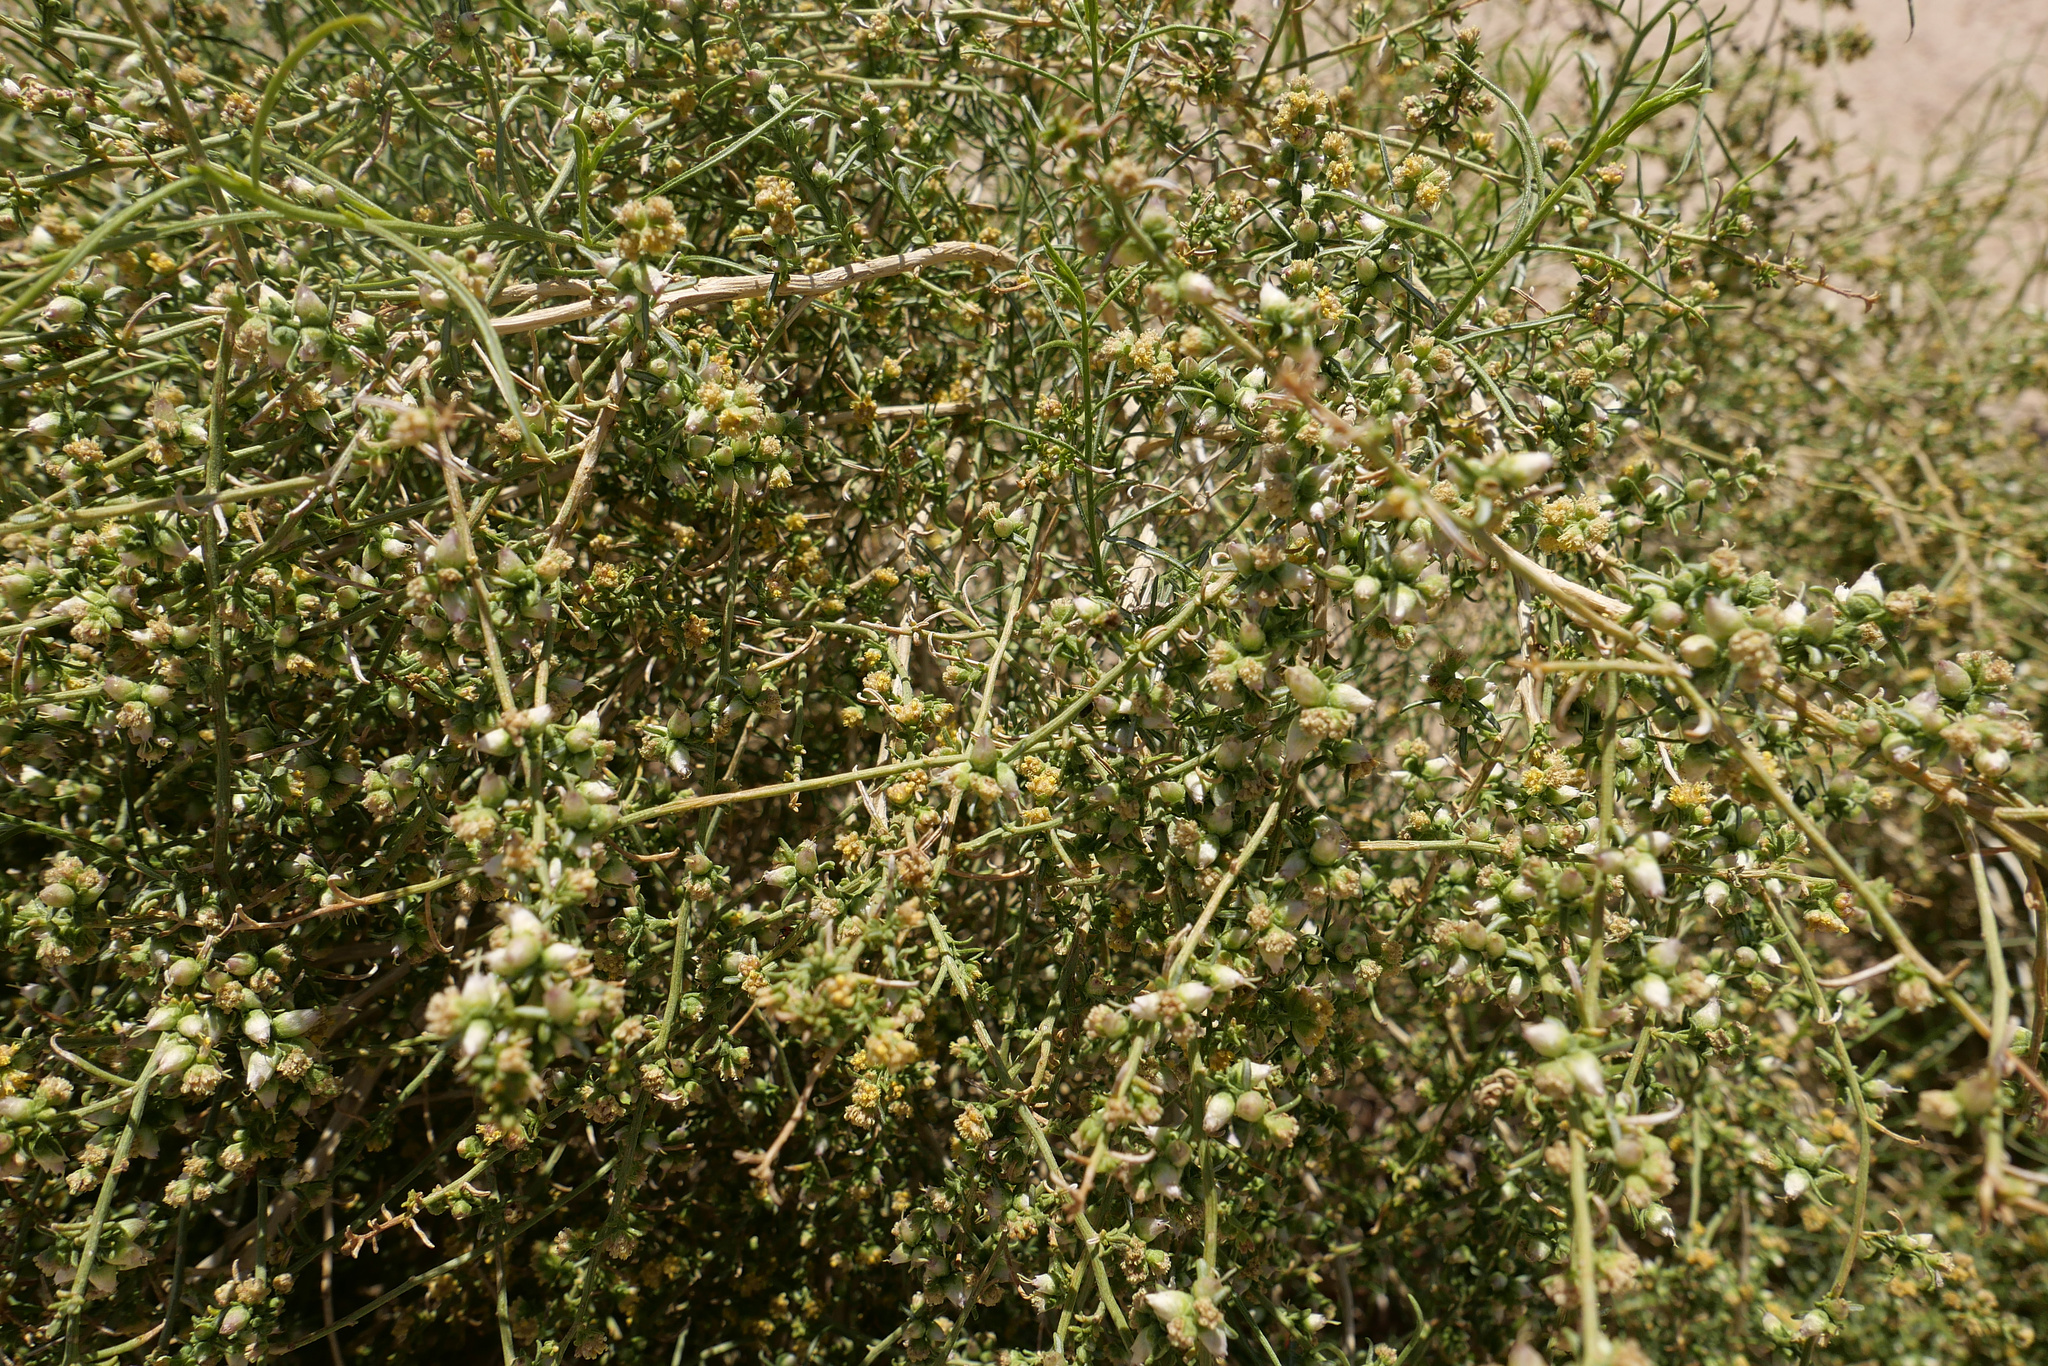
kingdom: Plantae
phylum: Tracheophyta
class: Magnoliopsida
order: Asterales
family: Asteraceae
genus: Ambrosia
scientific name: Ambrosia salsola
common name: Burrobrush
